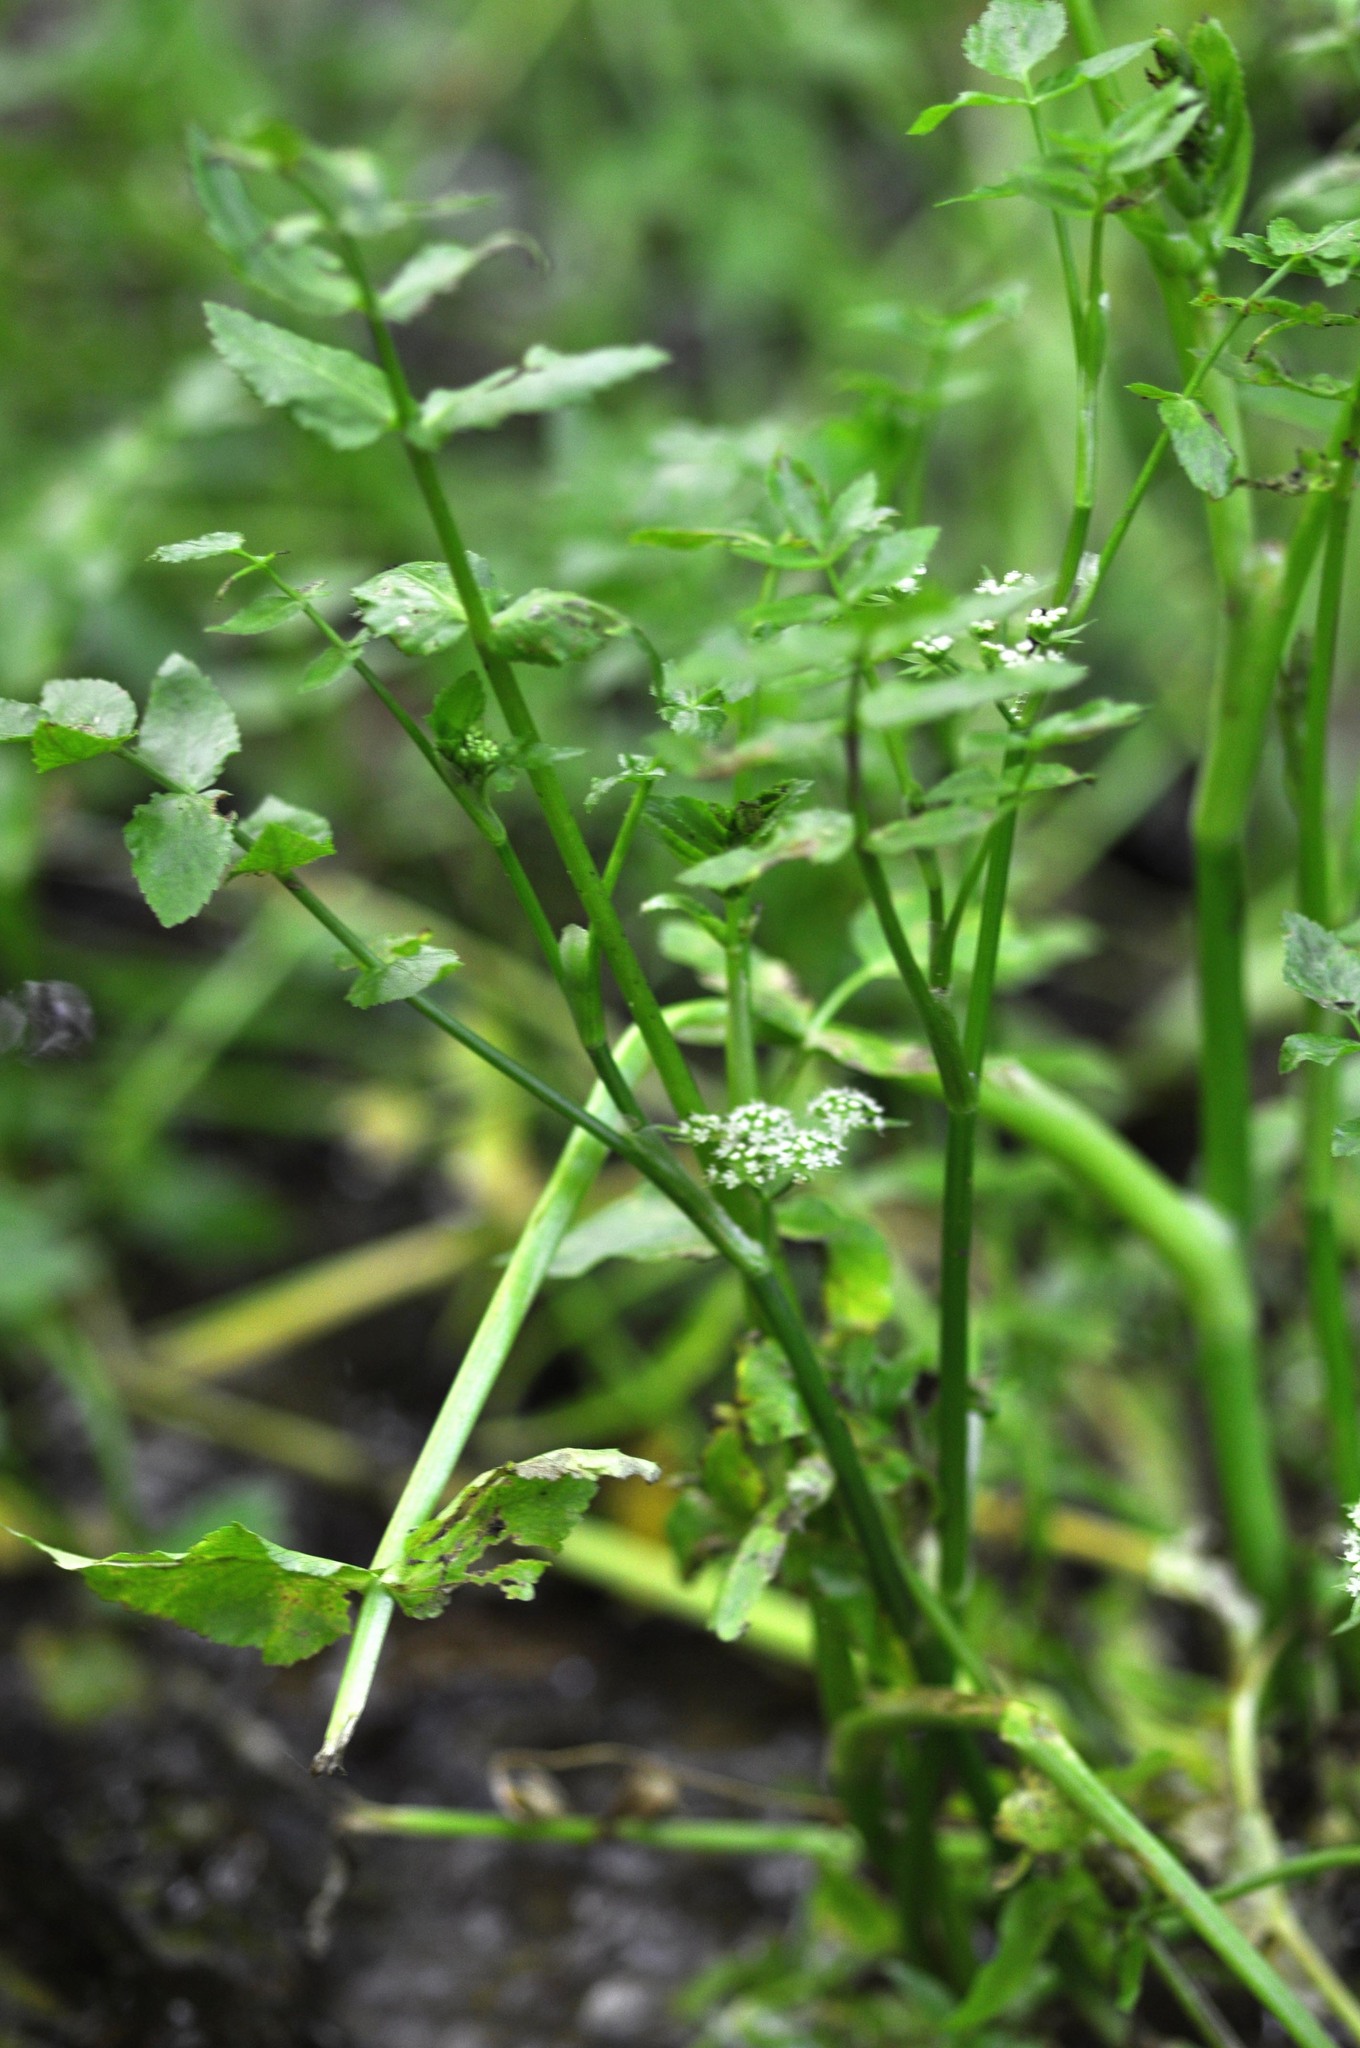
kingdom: Plantae
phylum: Tracheophyta
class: Magnoliopsida
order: Apiales
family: Apiaceae
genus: Helosciadium
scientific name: Helosciadium nodiflorum
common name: Fool's-watercress
